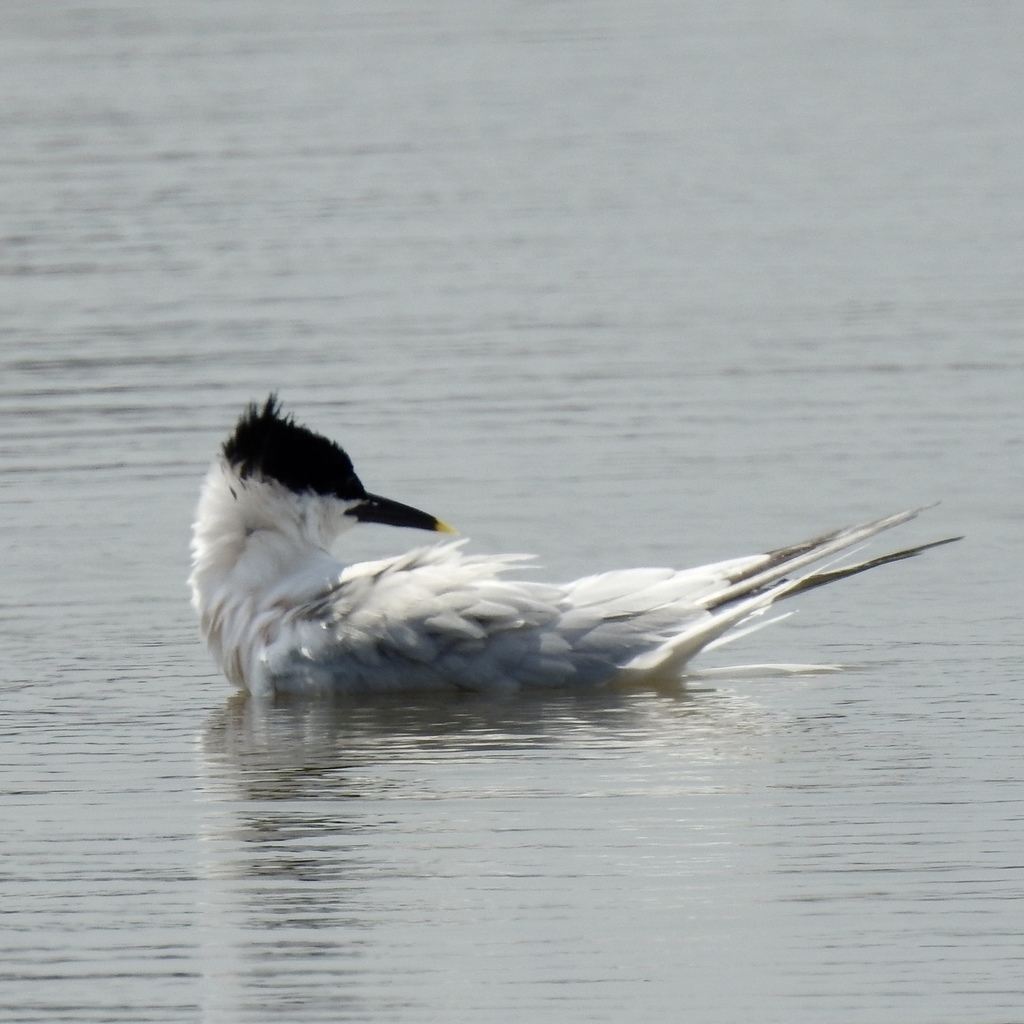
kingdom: Animalia
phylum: Chordata
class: Aves
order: Charadriiformes
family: Laridae
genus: Thalasseus
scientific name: Thalasseus sandvicensis
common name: Sandwich tern
